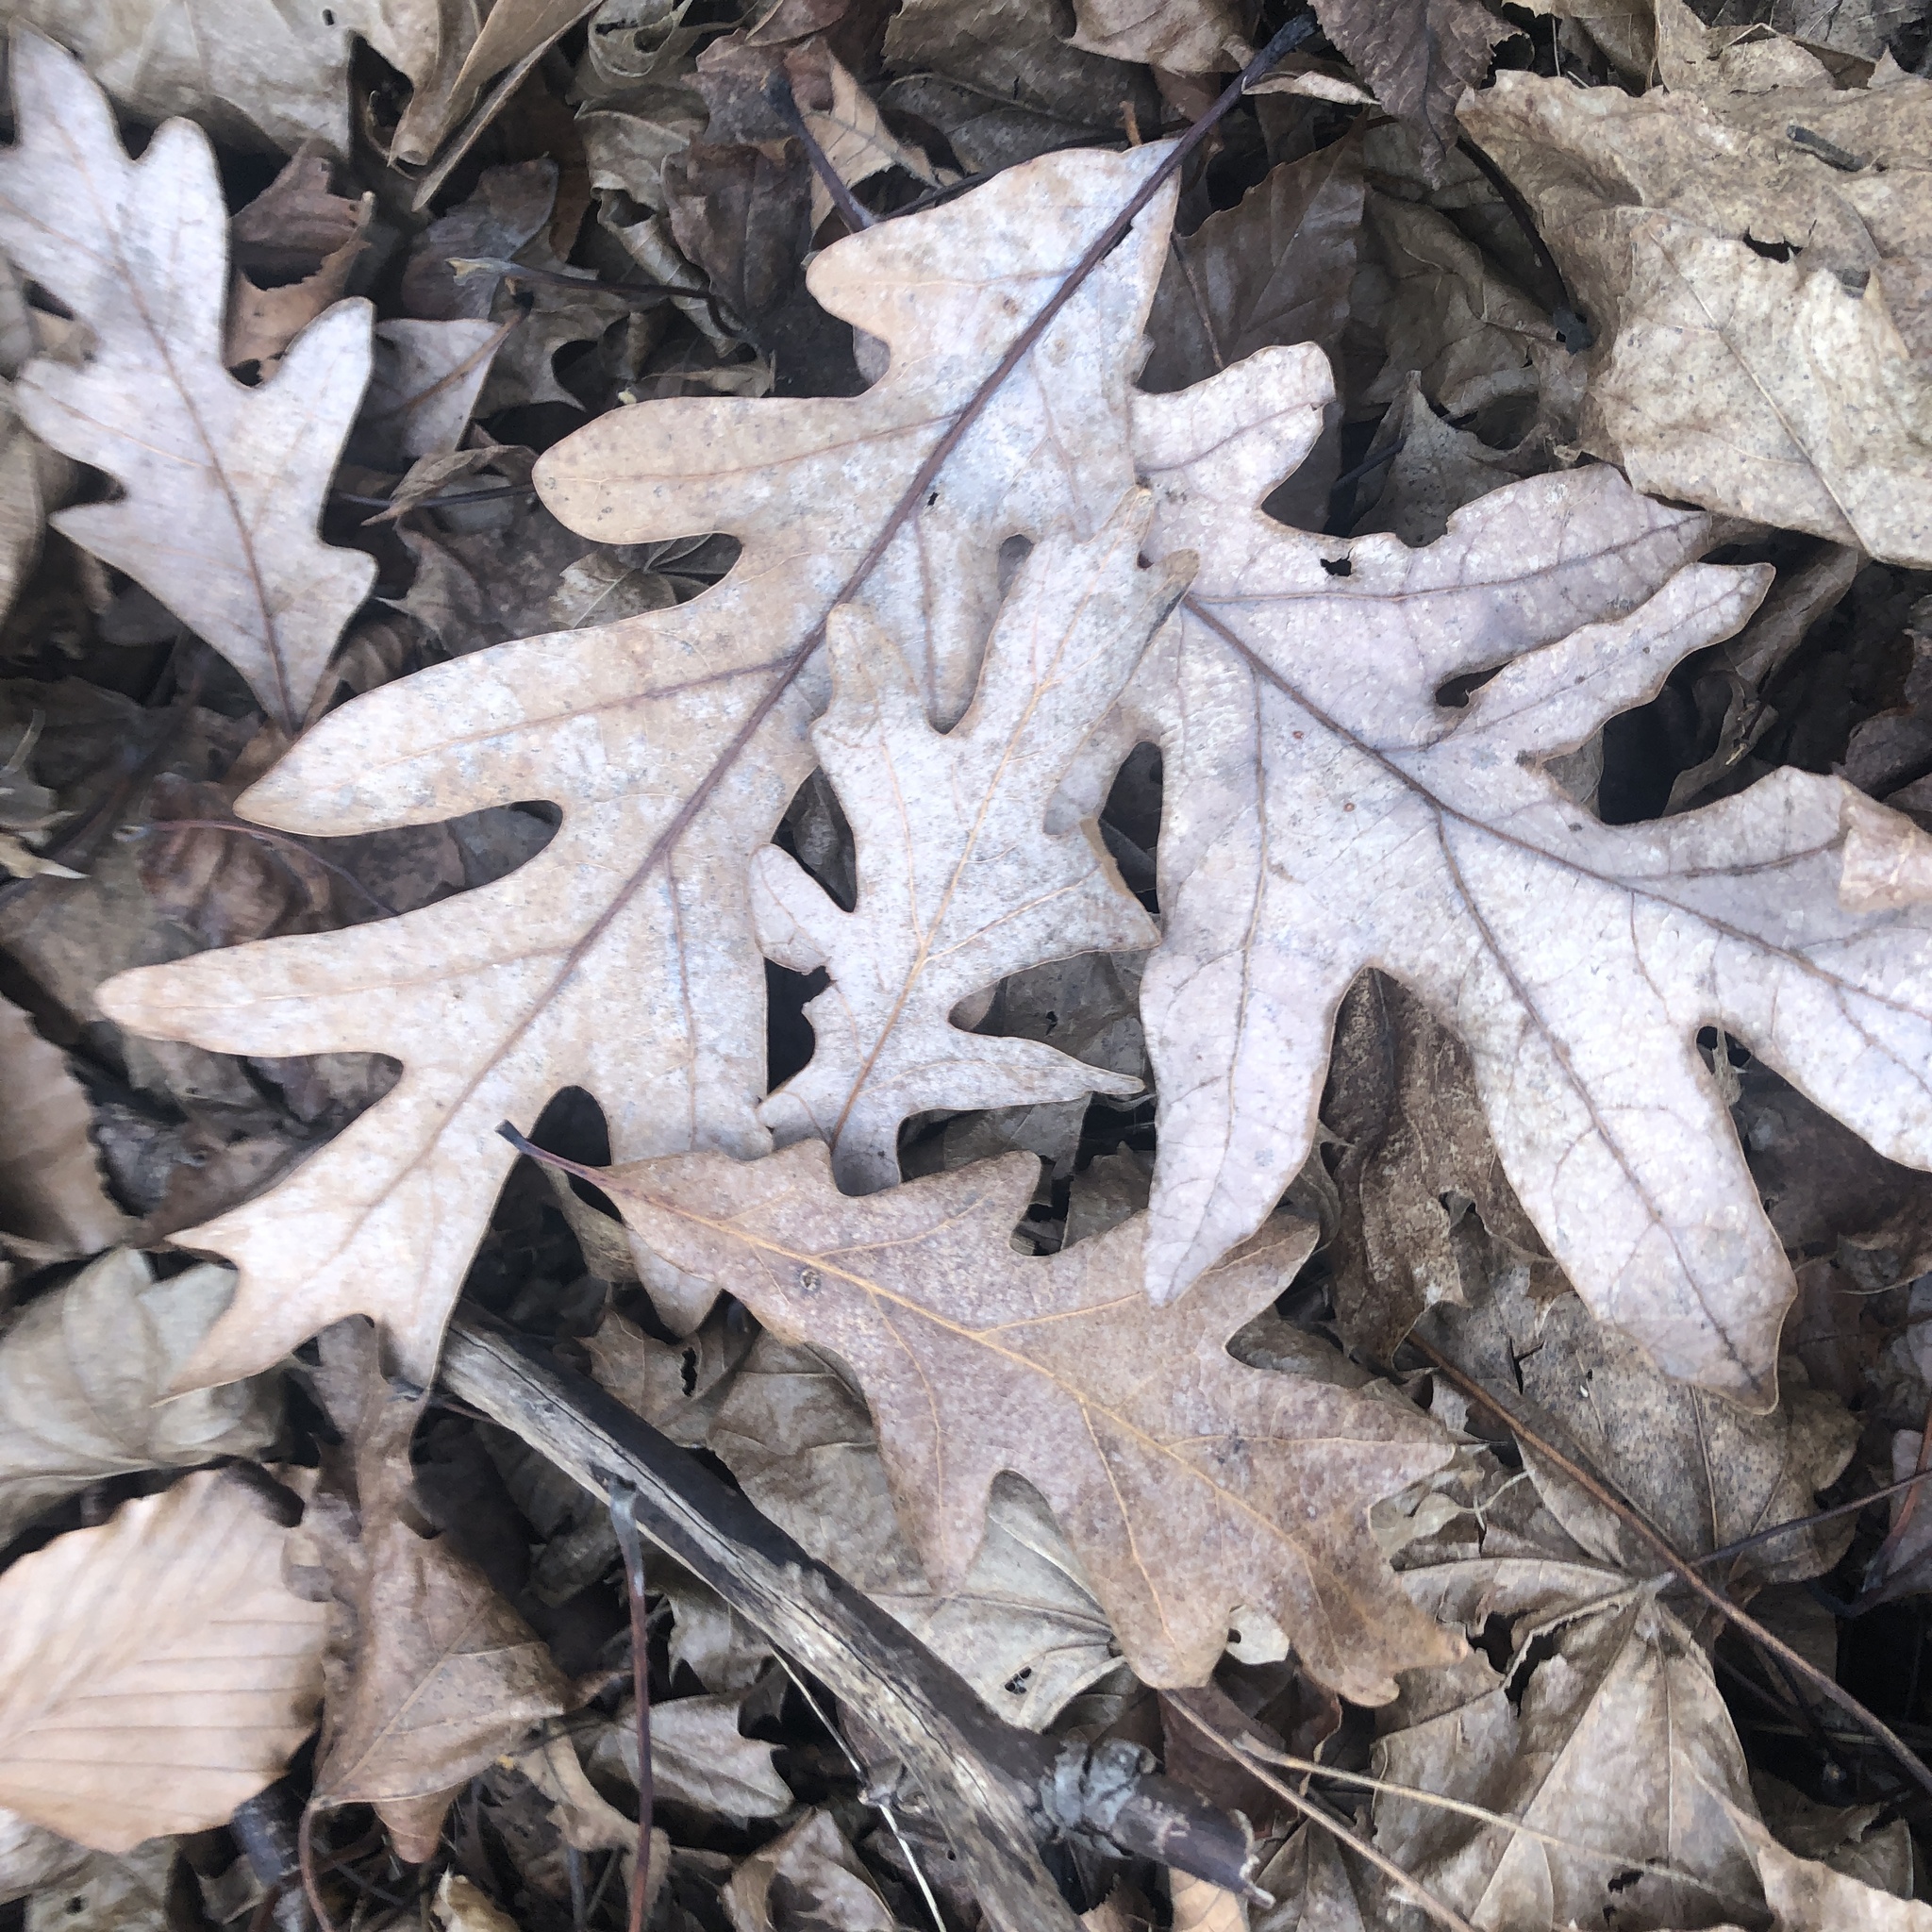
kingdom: Plantae
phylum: Tracheophyta
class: Magnoliopsida
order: Fagales
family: Fagaceae
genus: Quercus
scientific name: Quercus alba
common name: White oak
